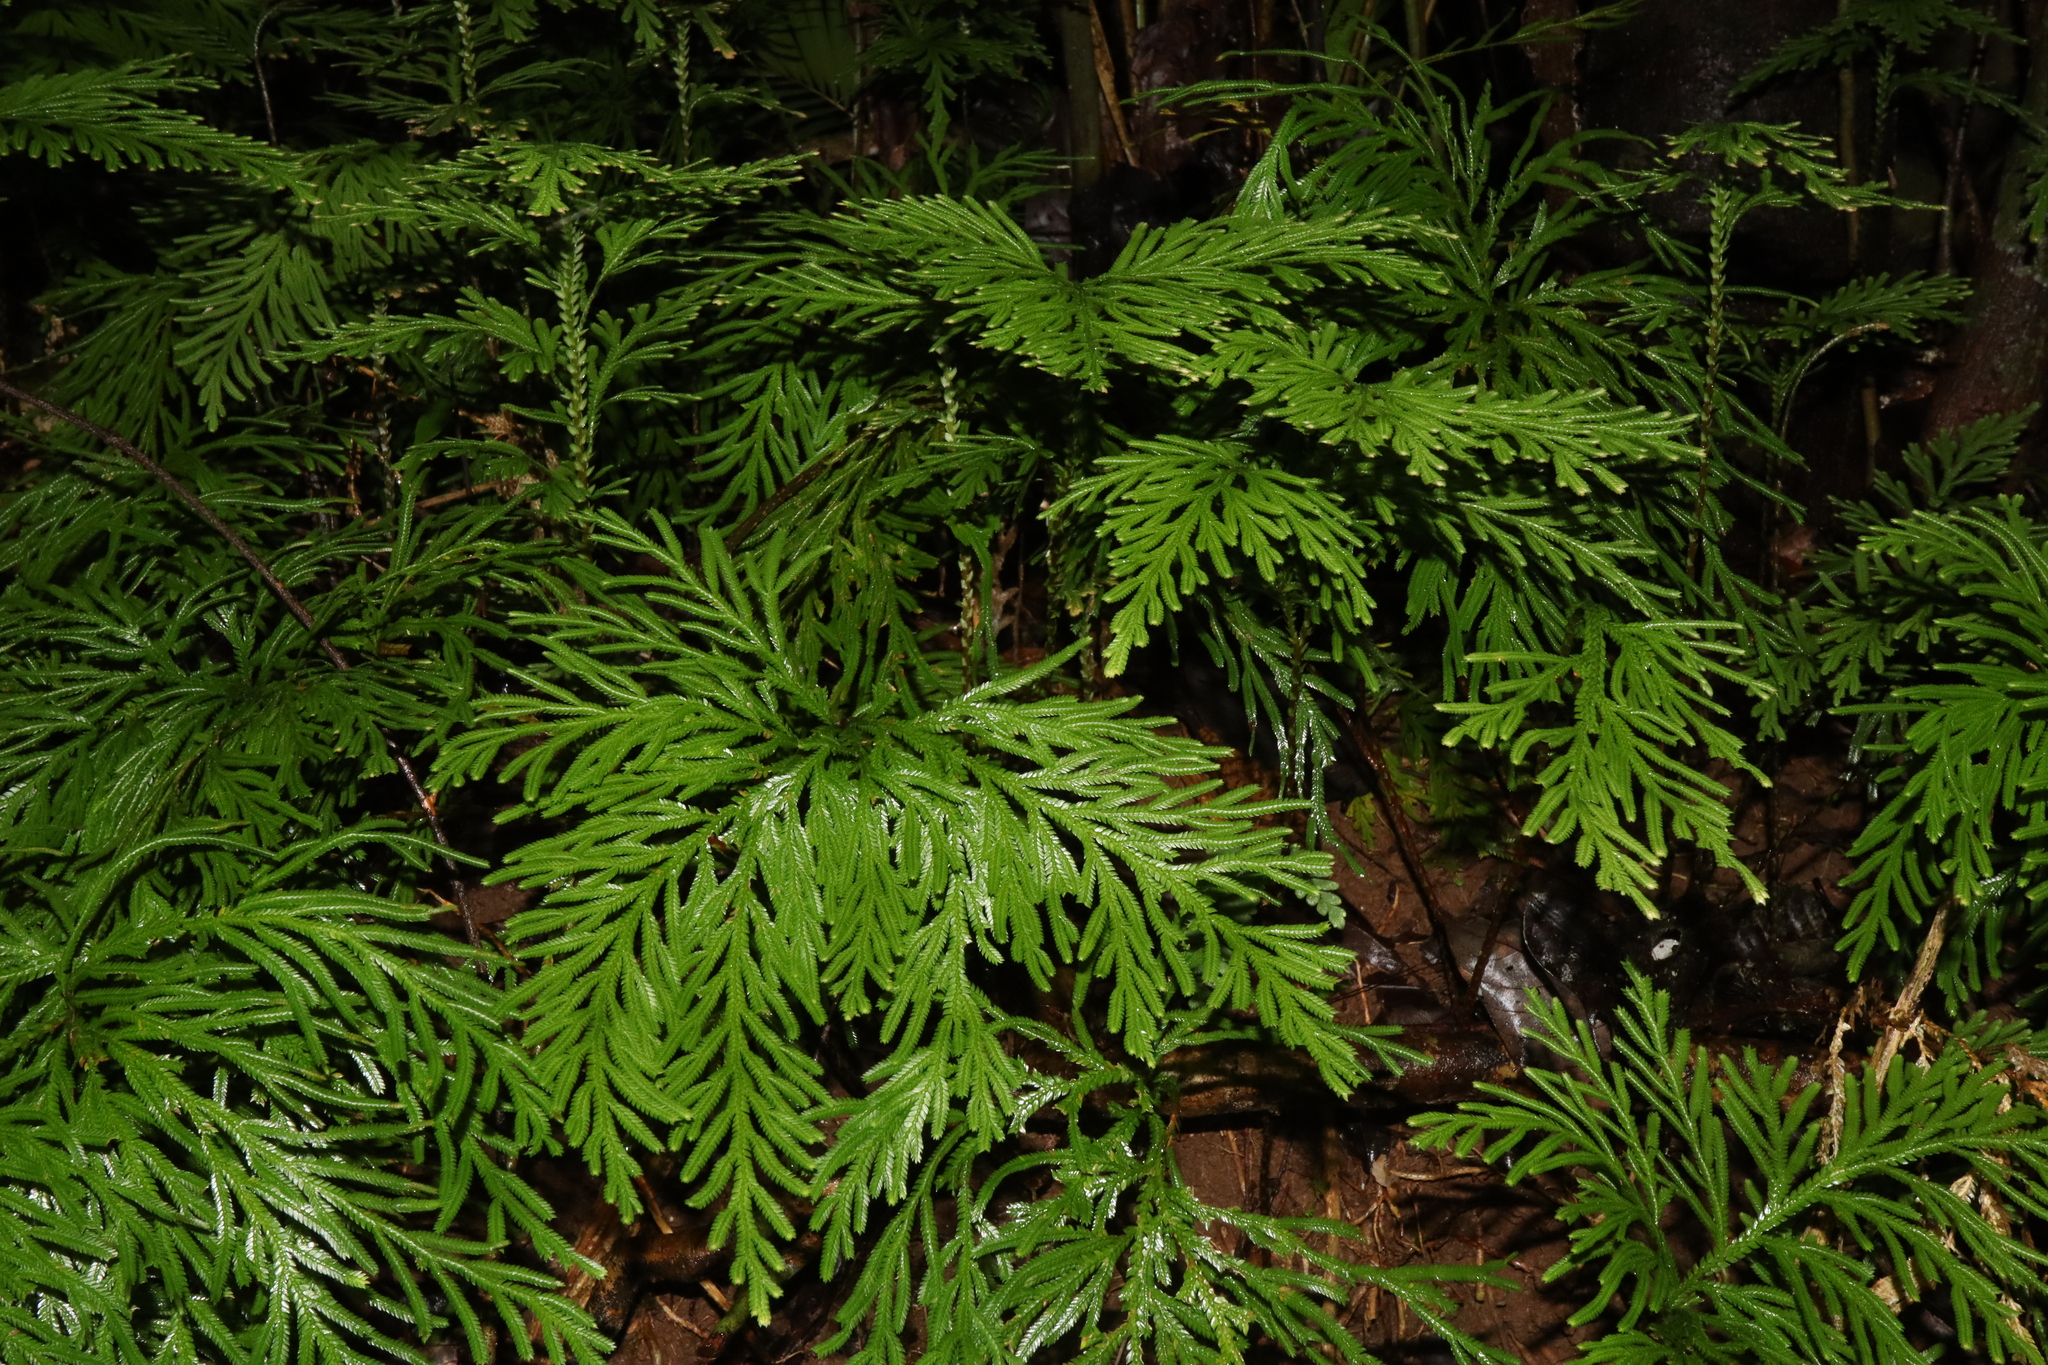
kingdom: Plantae
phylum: Tracheophyta
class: Lycopodiopsida
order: Selaginellales
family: Selaginellaceae
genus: Selaginella
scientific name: Selaginella longipinna
